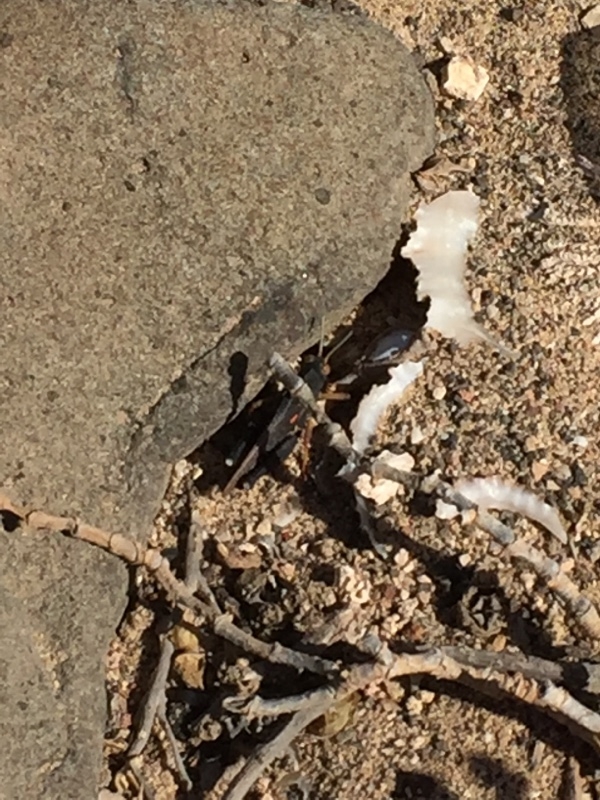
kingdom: Animalia
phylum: Arthropoda
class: Insecta
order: Orthoptera
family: Dericorythidae
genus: Dericorys
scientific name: Dericorys lobata
